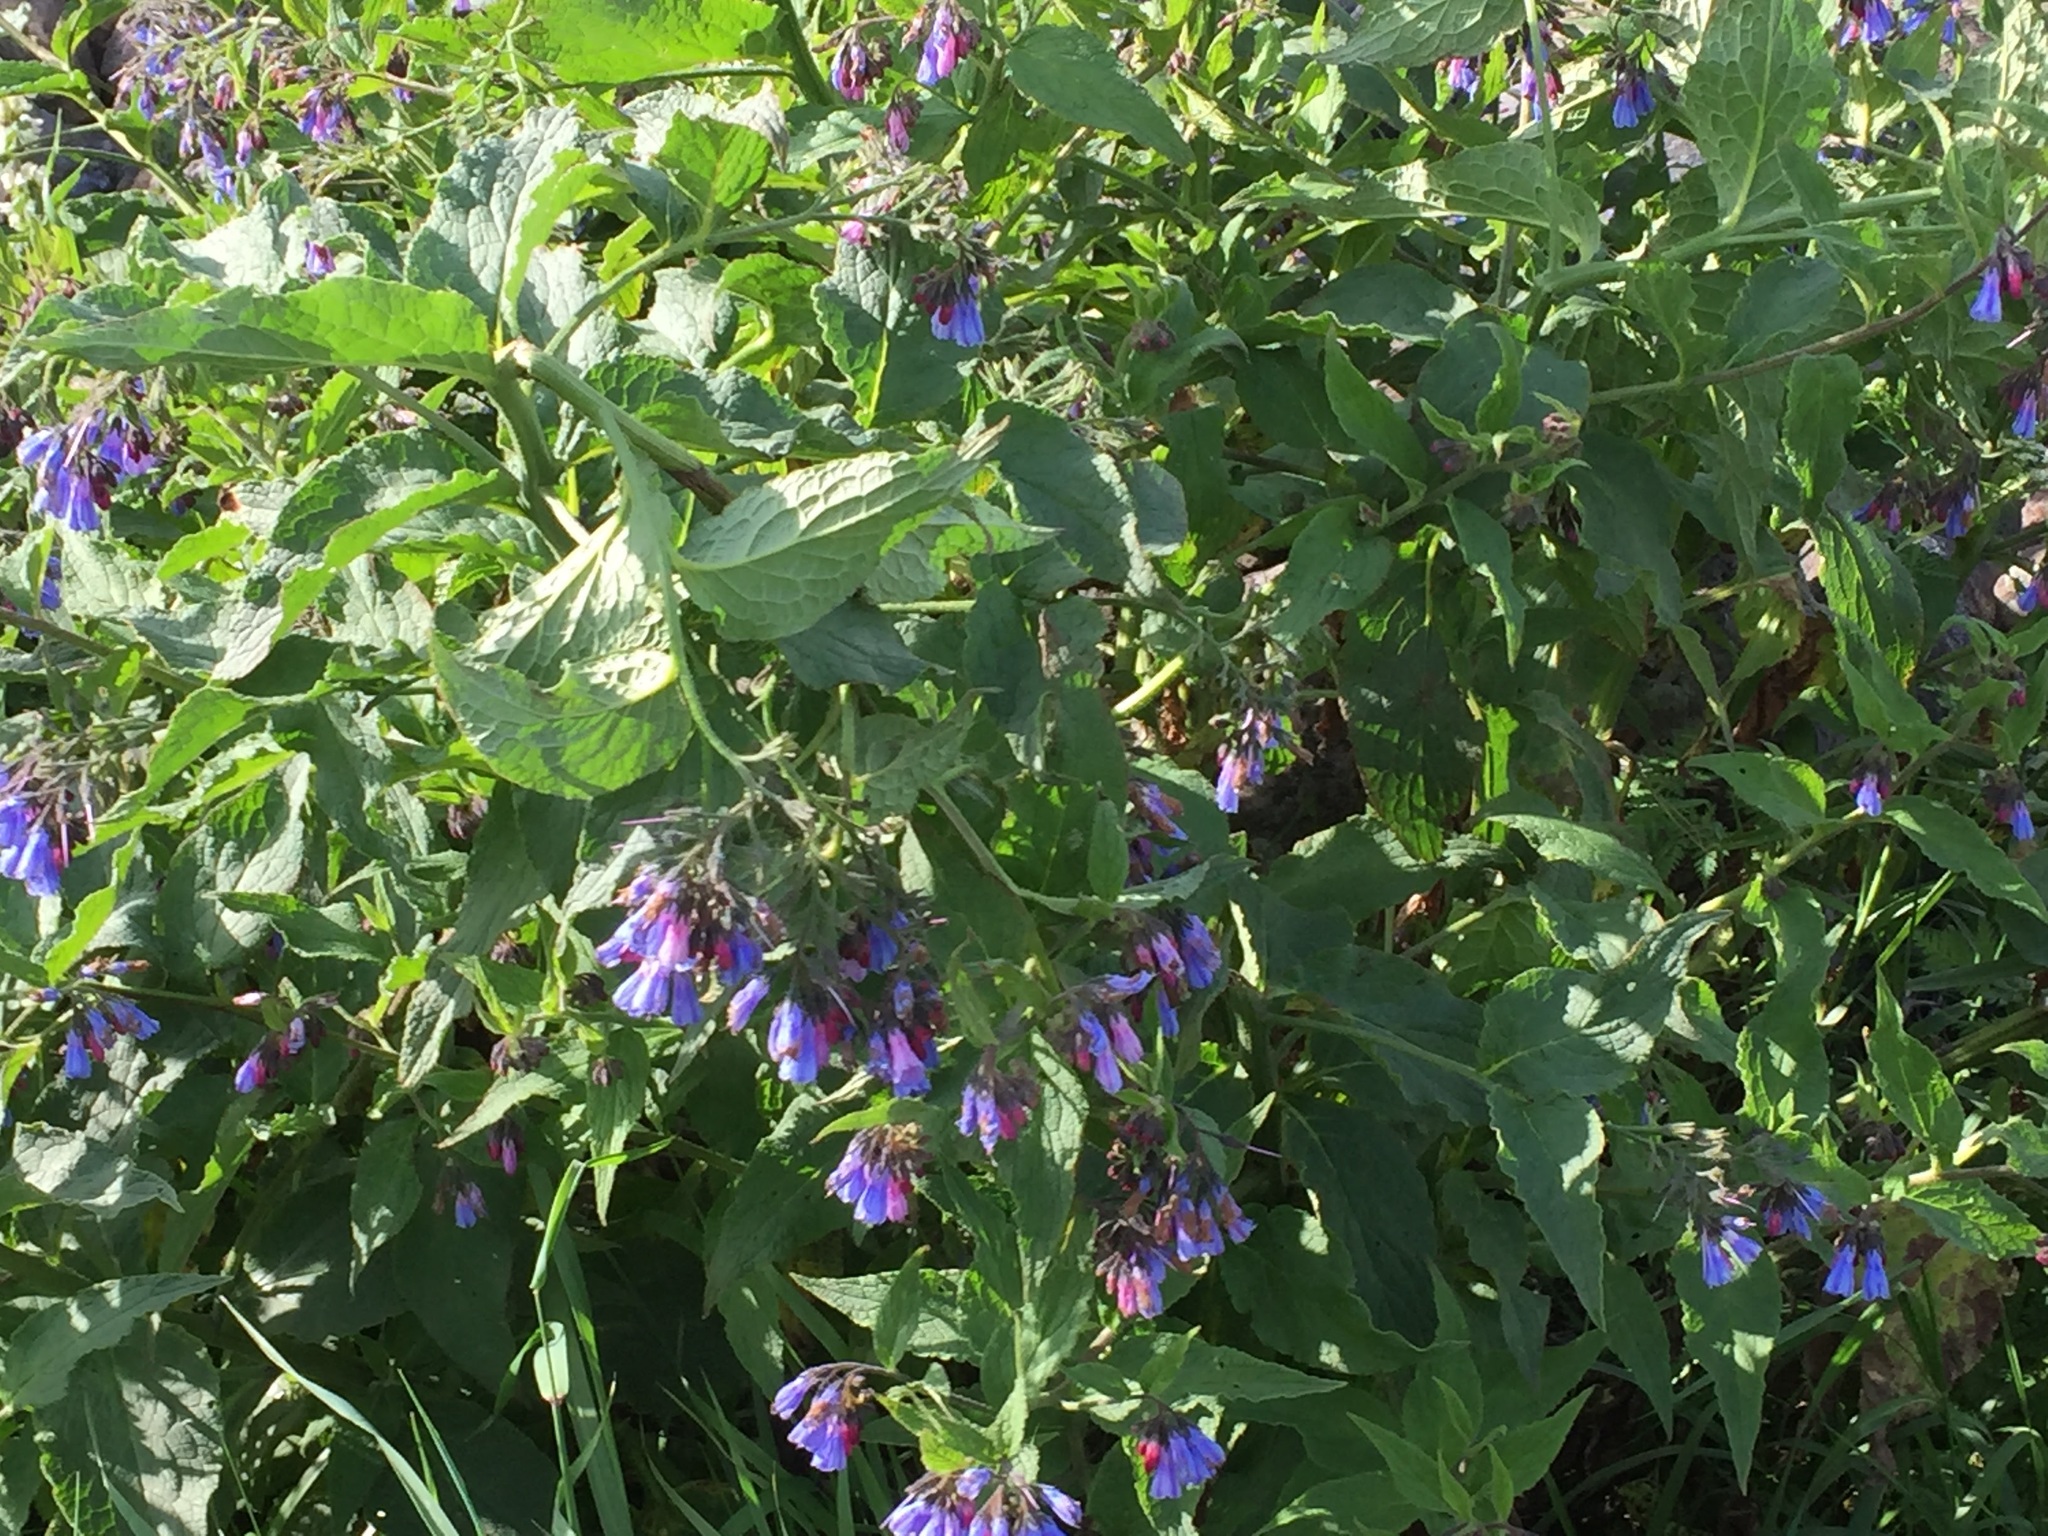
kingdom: Plantae
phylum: Tracheophyta
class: Magnoliopsida
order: Boraginales
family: Boraginaceae
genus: Symphytum
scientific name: Symphytum asperum
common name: Prickly comfrey
